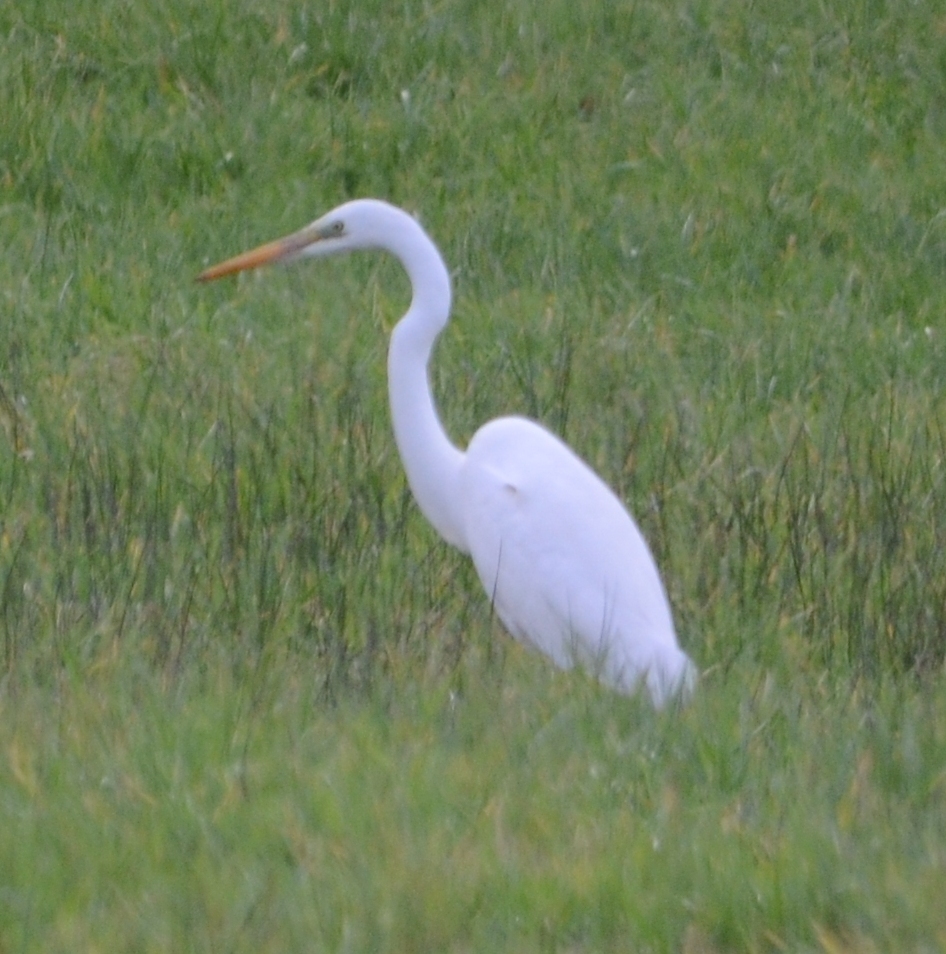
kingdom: Animalia
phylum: Chordata
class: Aves
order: Pelecaniformes
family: Ardeidae
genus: Ardea
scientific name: Ardea alba
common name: Great egret
